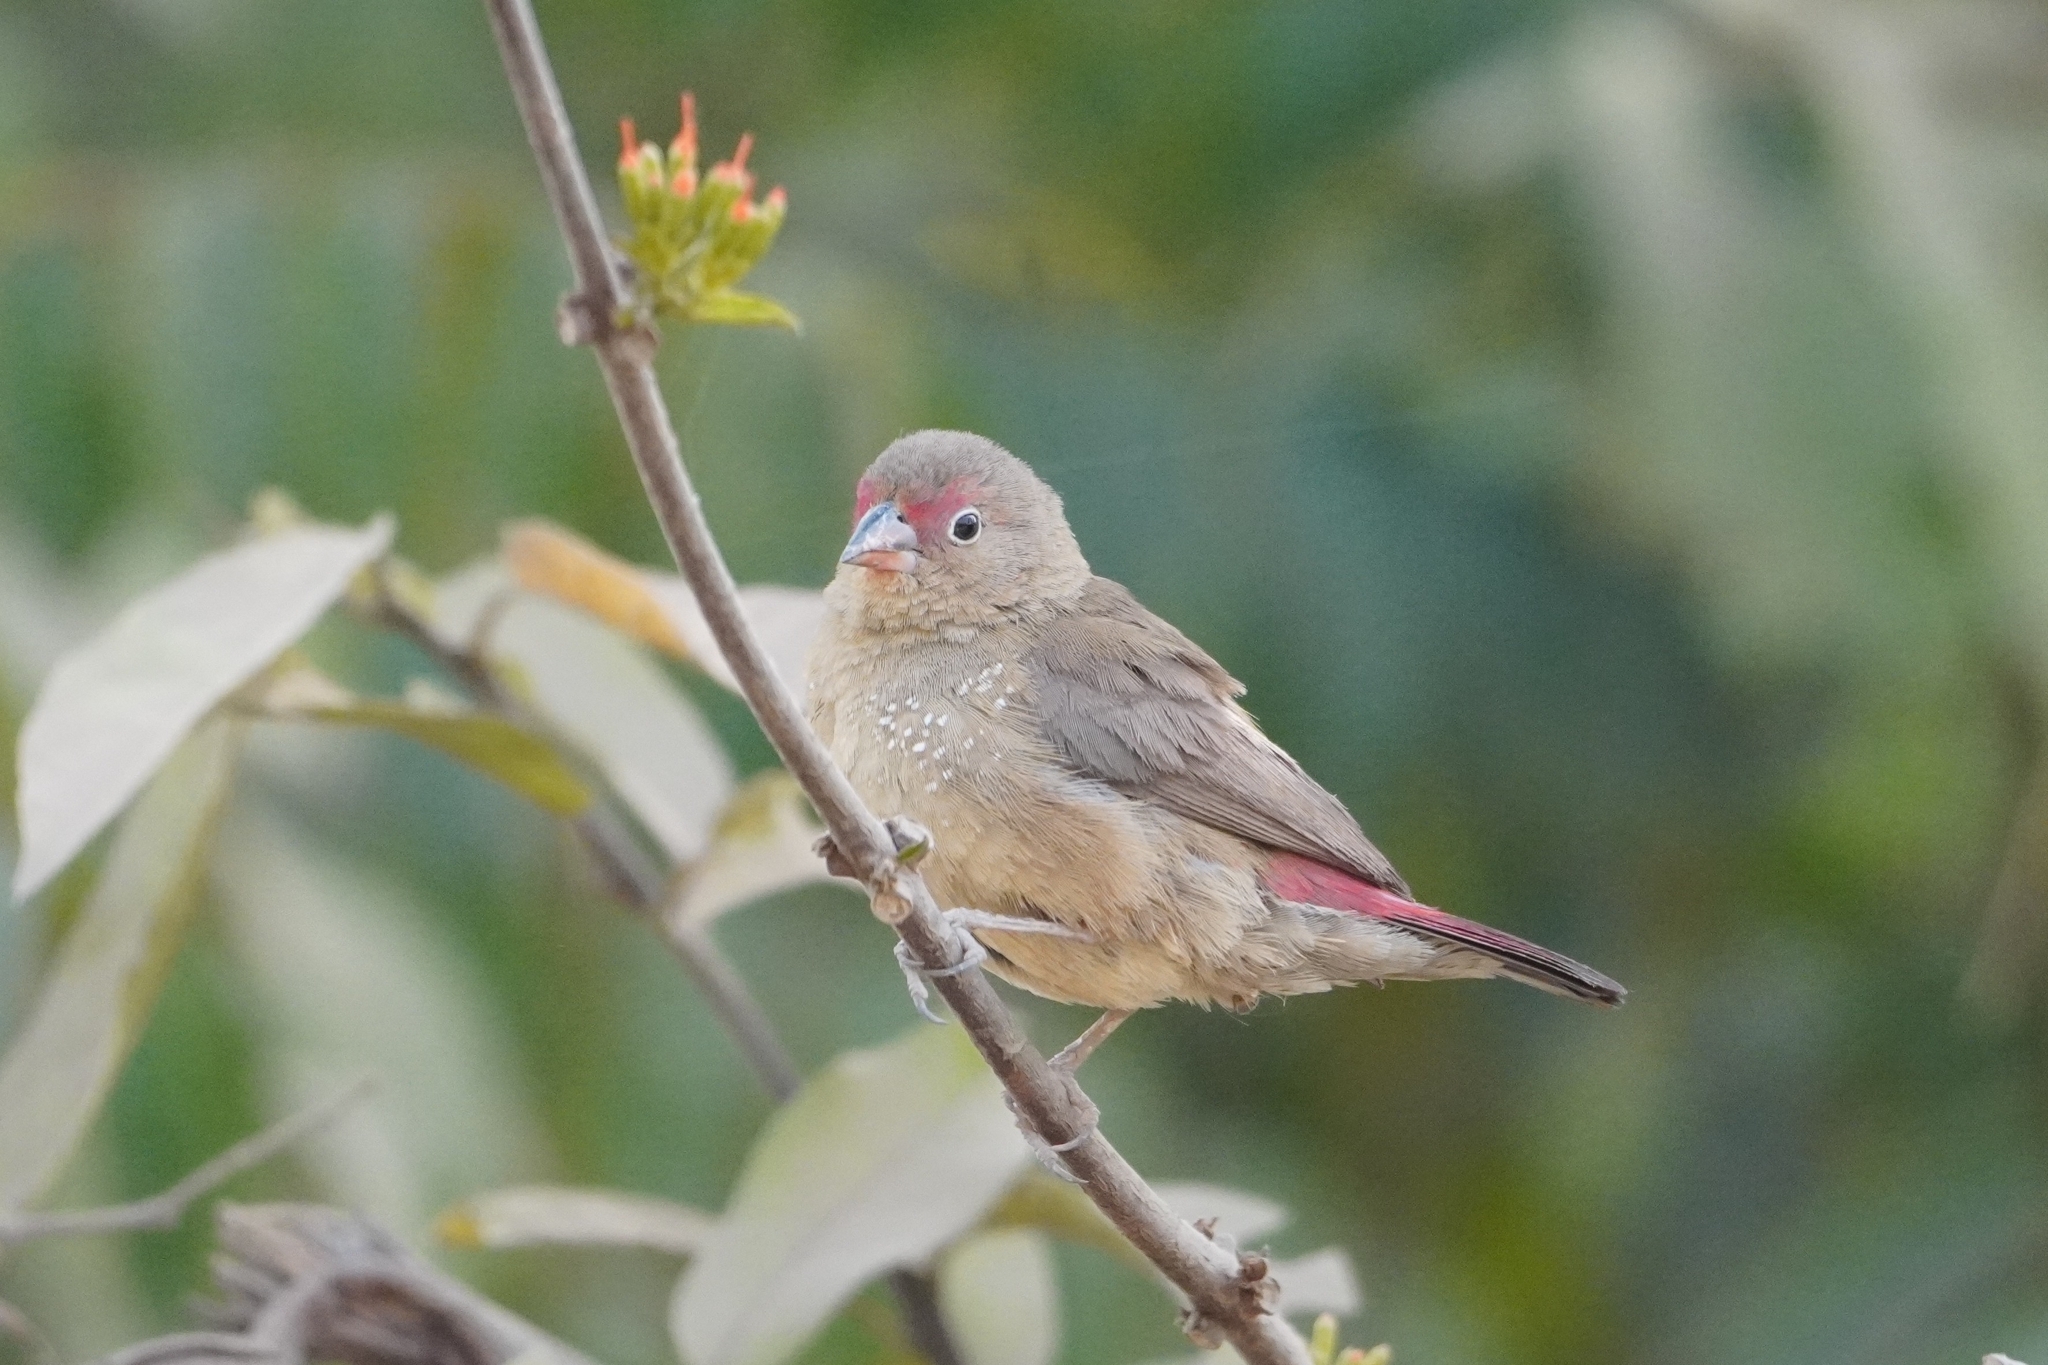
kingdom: Animalia
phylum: Chordata
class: Aves
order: Passeriformes
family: Estrildidae
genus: Lagonosticta
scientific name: Lagonosticta senegala
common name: Red-billed firefinch
